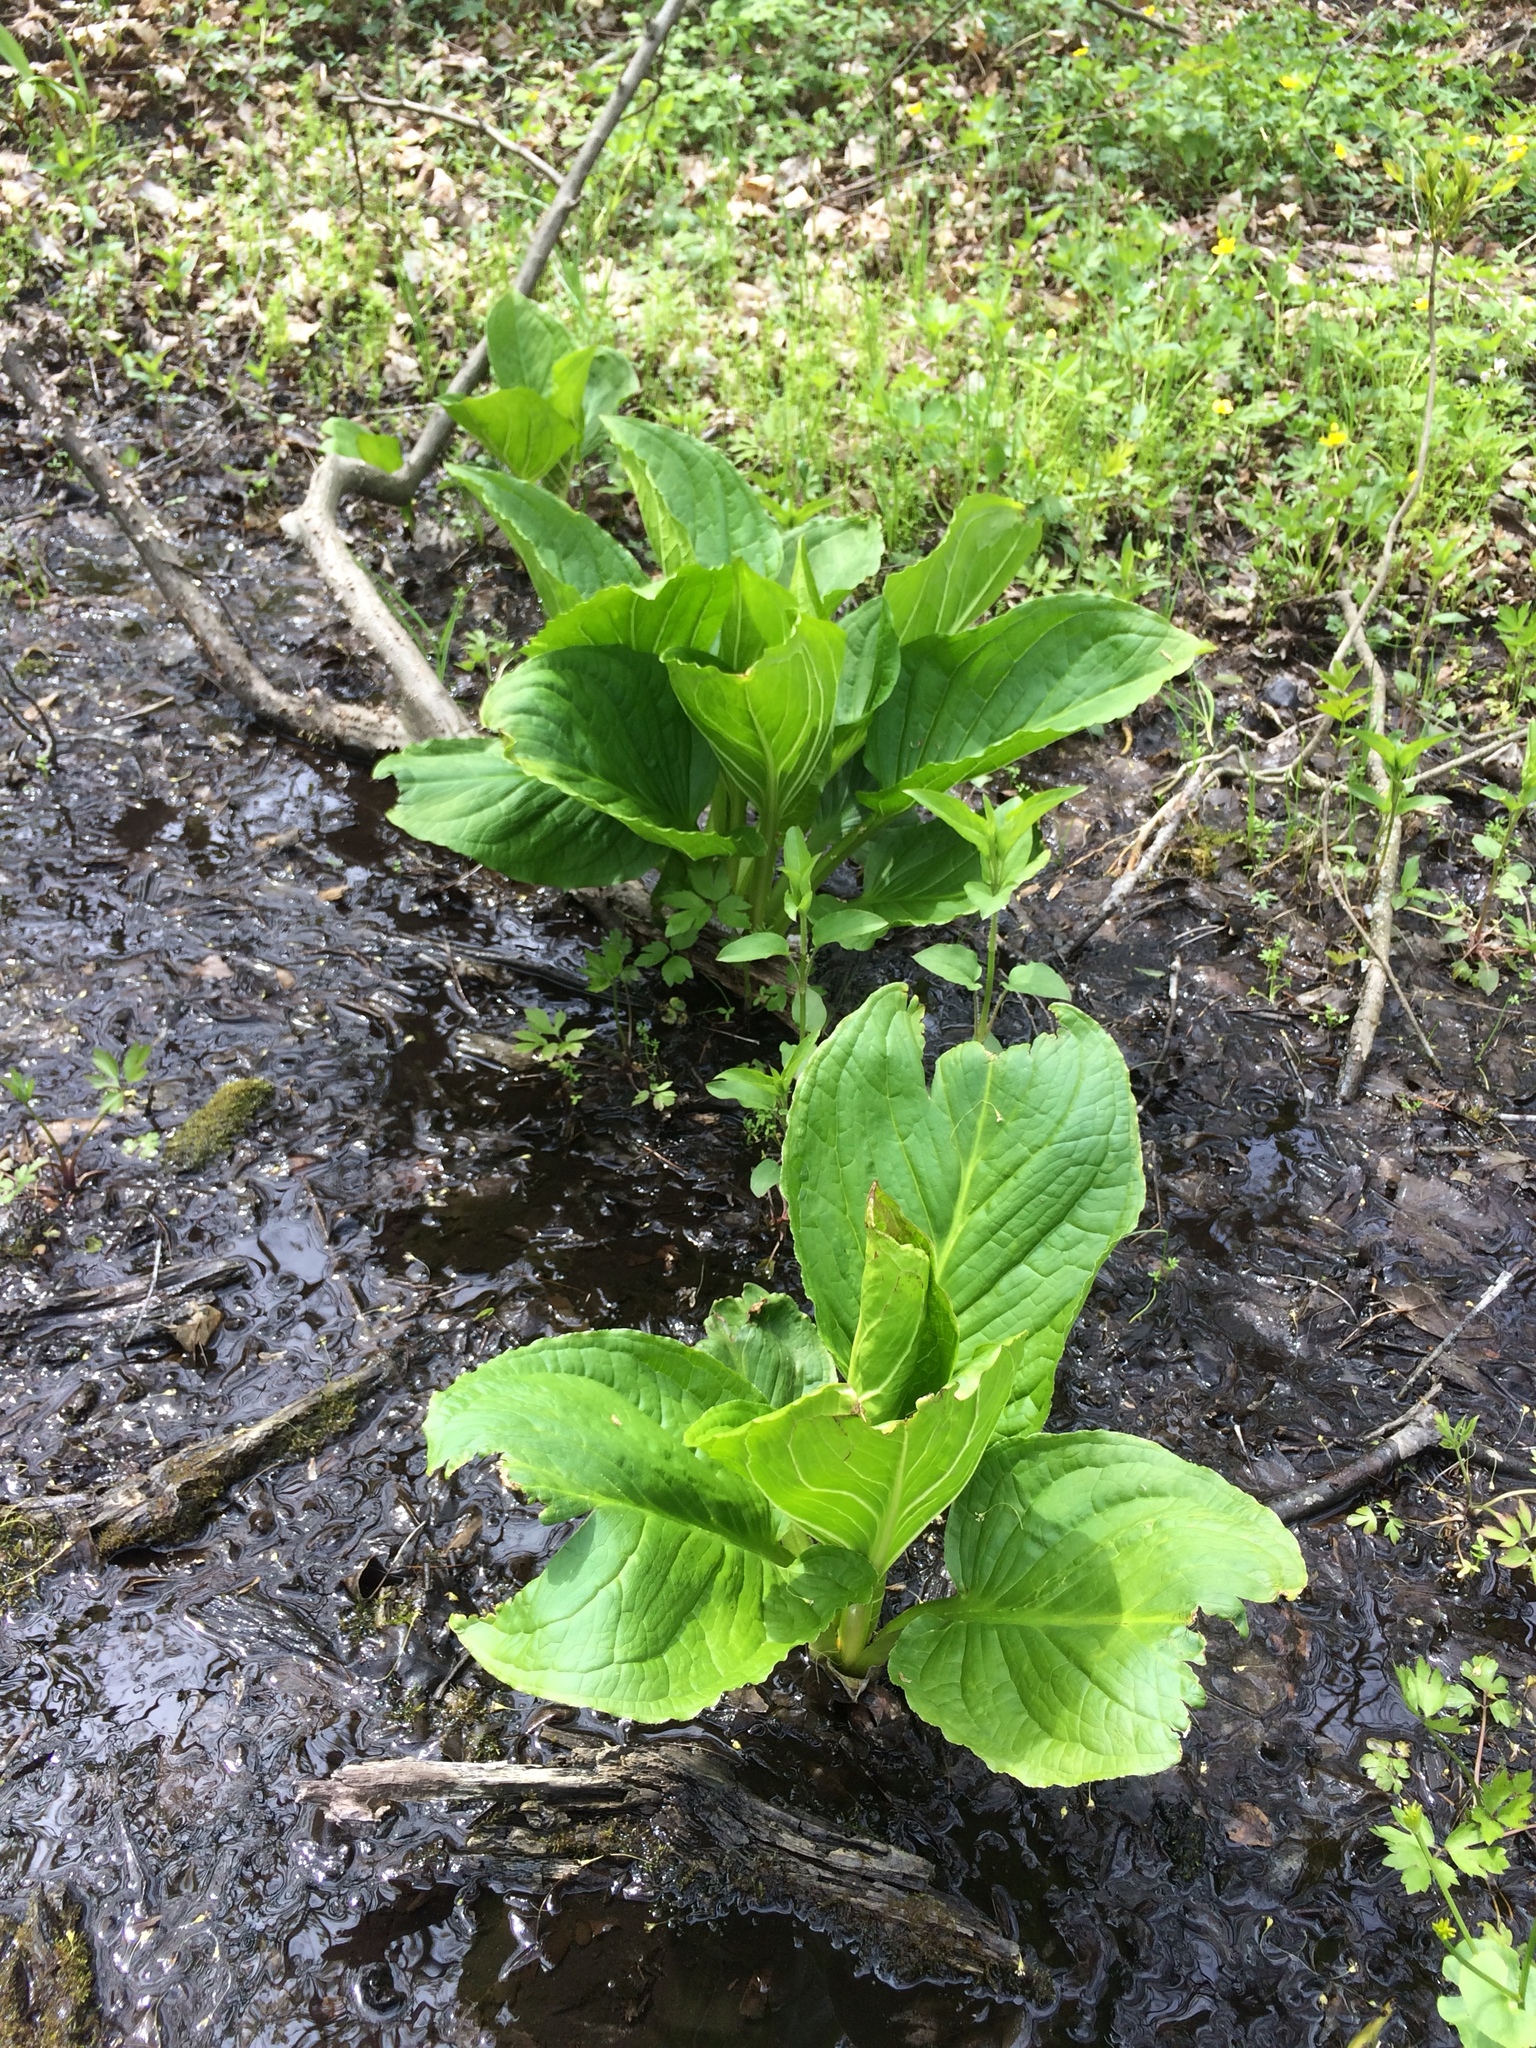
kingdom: Plantae
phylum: Tracheophyta
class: Liliopsida
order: Alismatales
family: Araceae
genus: Symplocarpus
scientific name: Symplocarpus foetidus
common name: Eastern skunk cabbage
